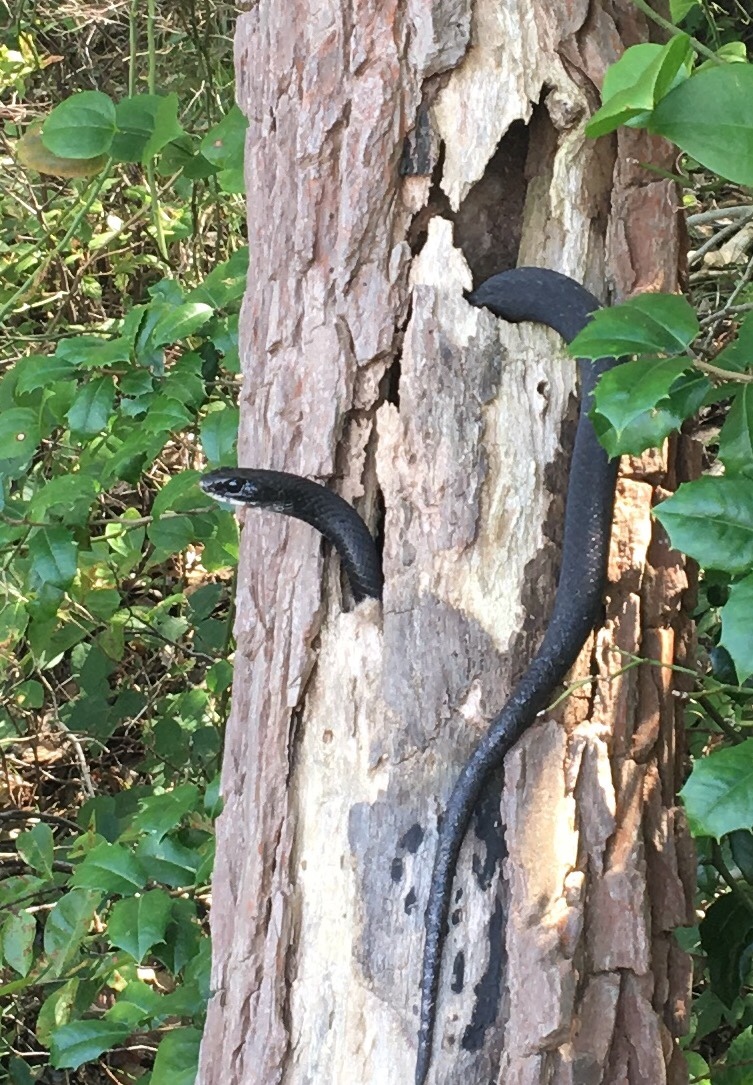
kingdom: Animalia
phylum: Chordata
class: Squamata
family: Colubridae
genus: Coluber
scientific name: Coluber constrictor
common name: Eastern racer
